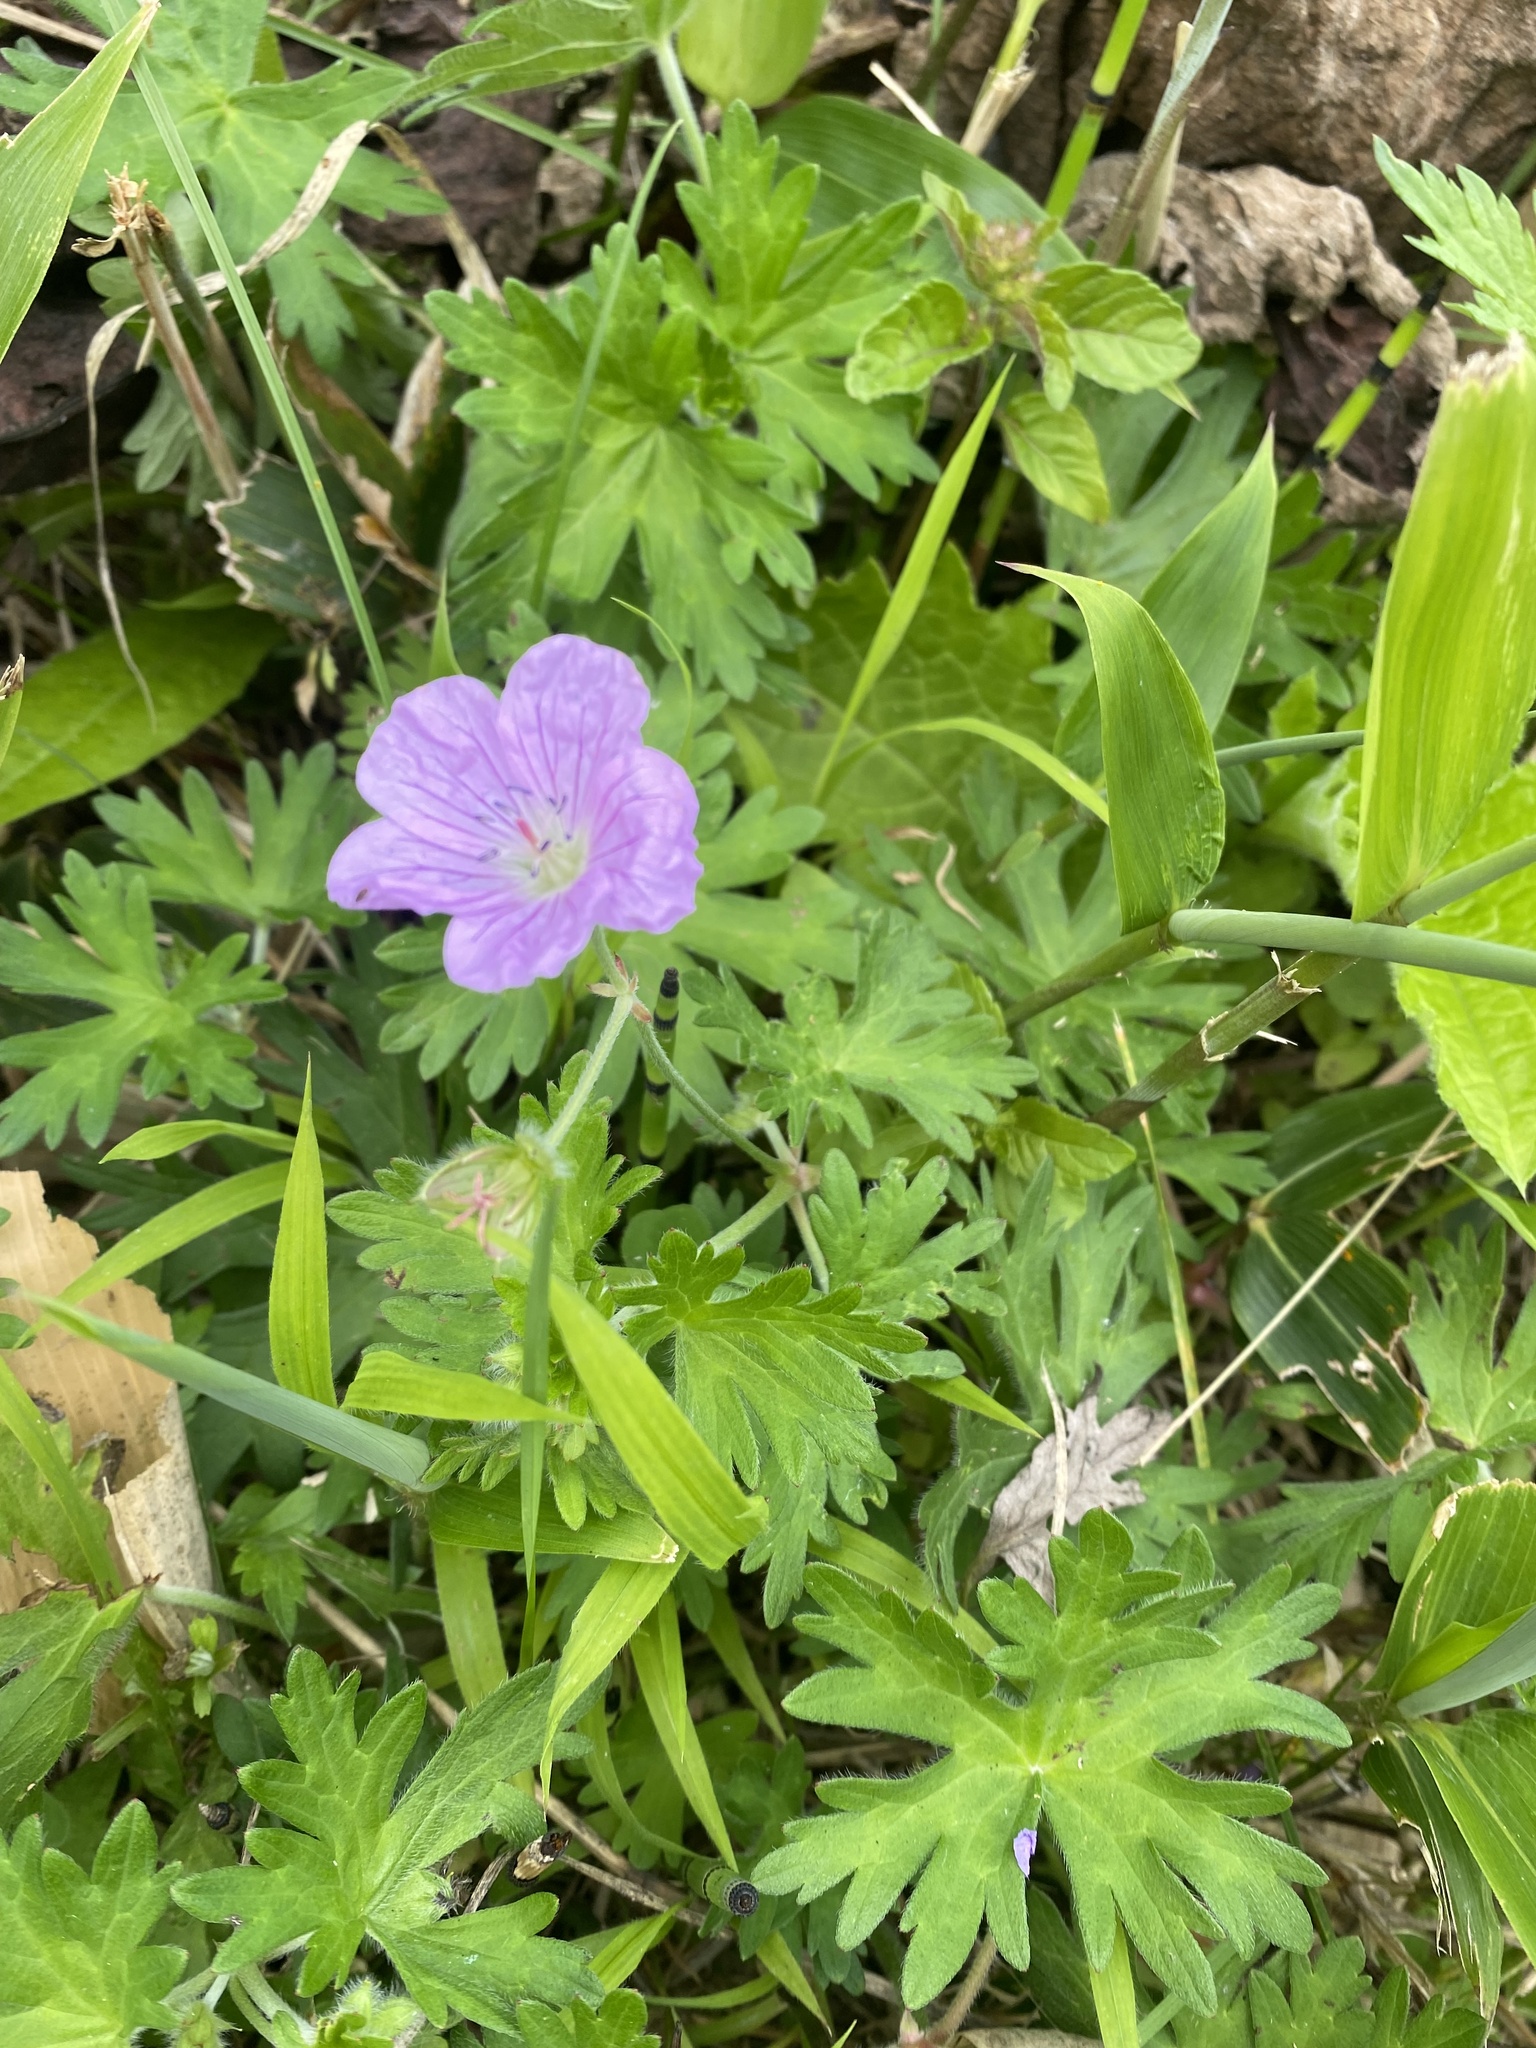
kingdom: Plantae
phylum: Tracheophyta
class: Magnoliopsida
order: Geraniales
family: Geraniaceae
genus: Geranium
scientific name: Geranium erianthum
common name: Northern crane's-bill
